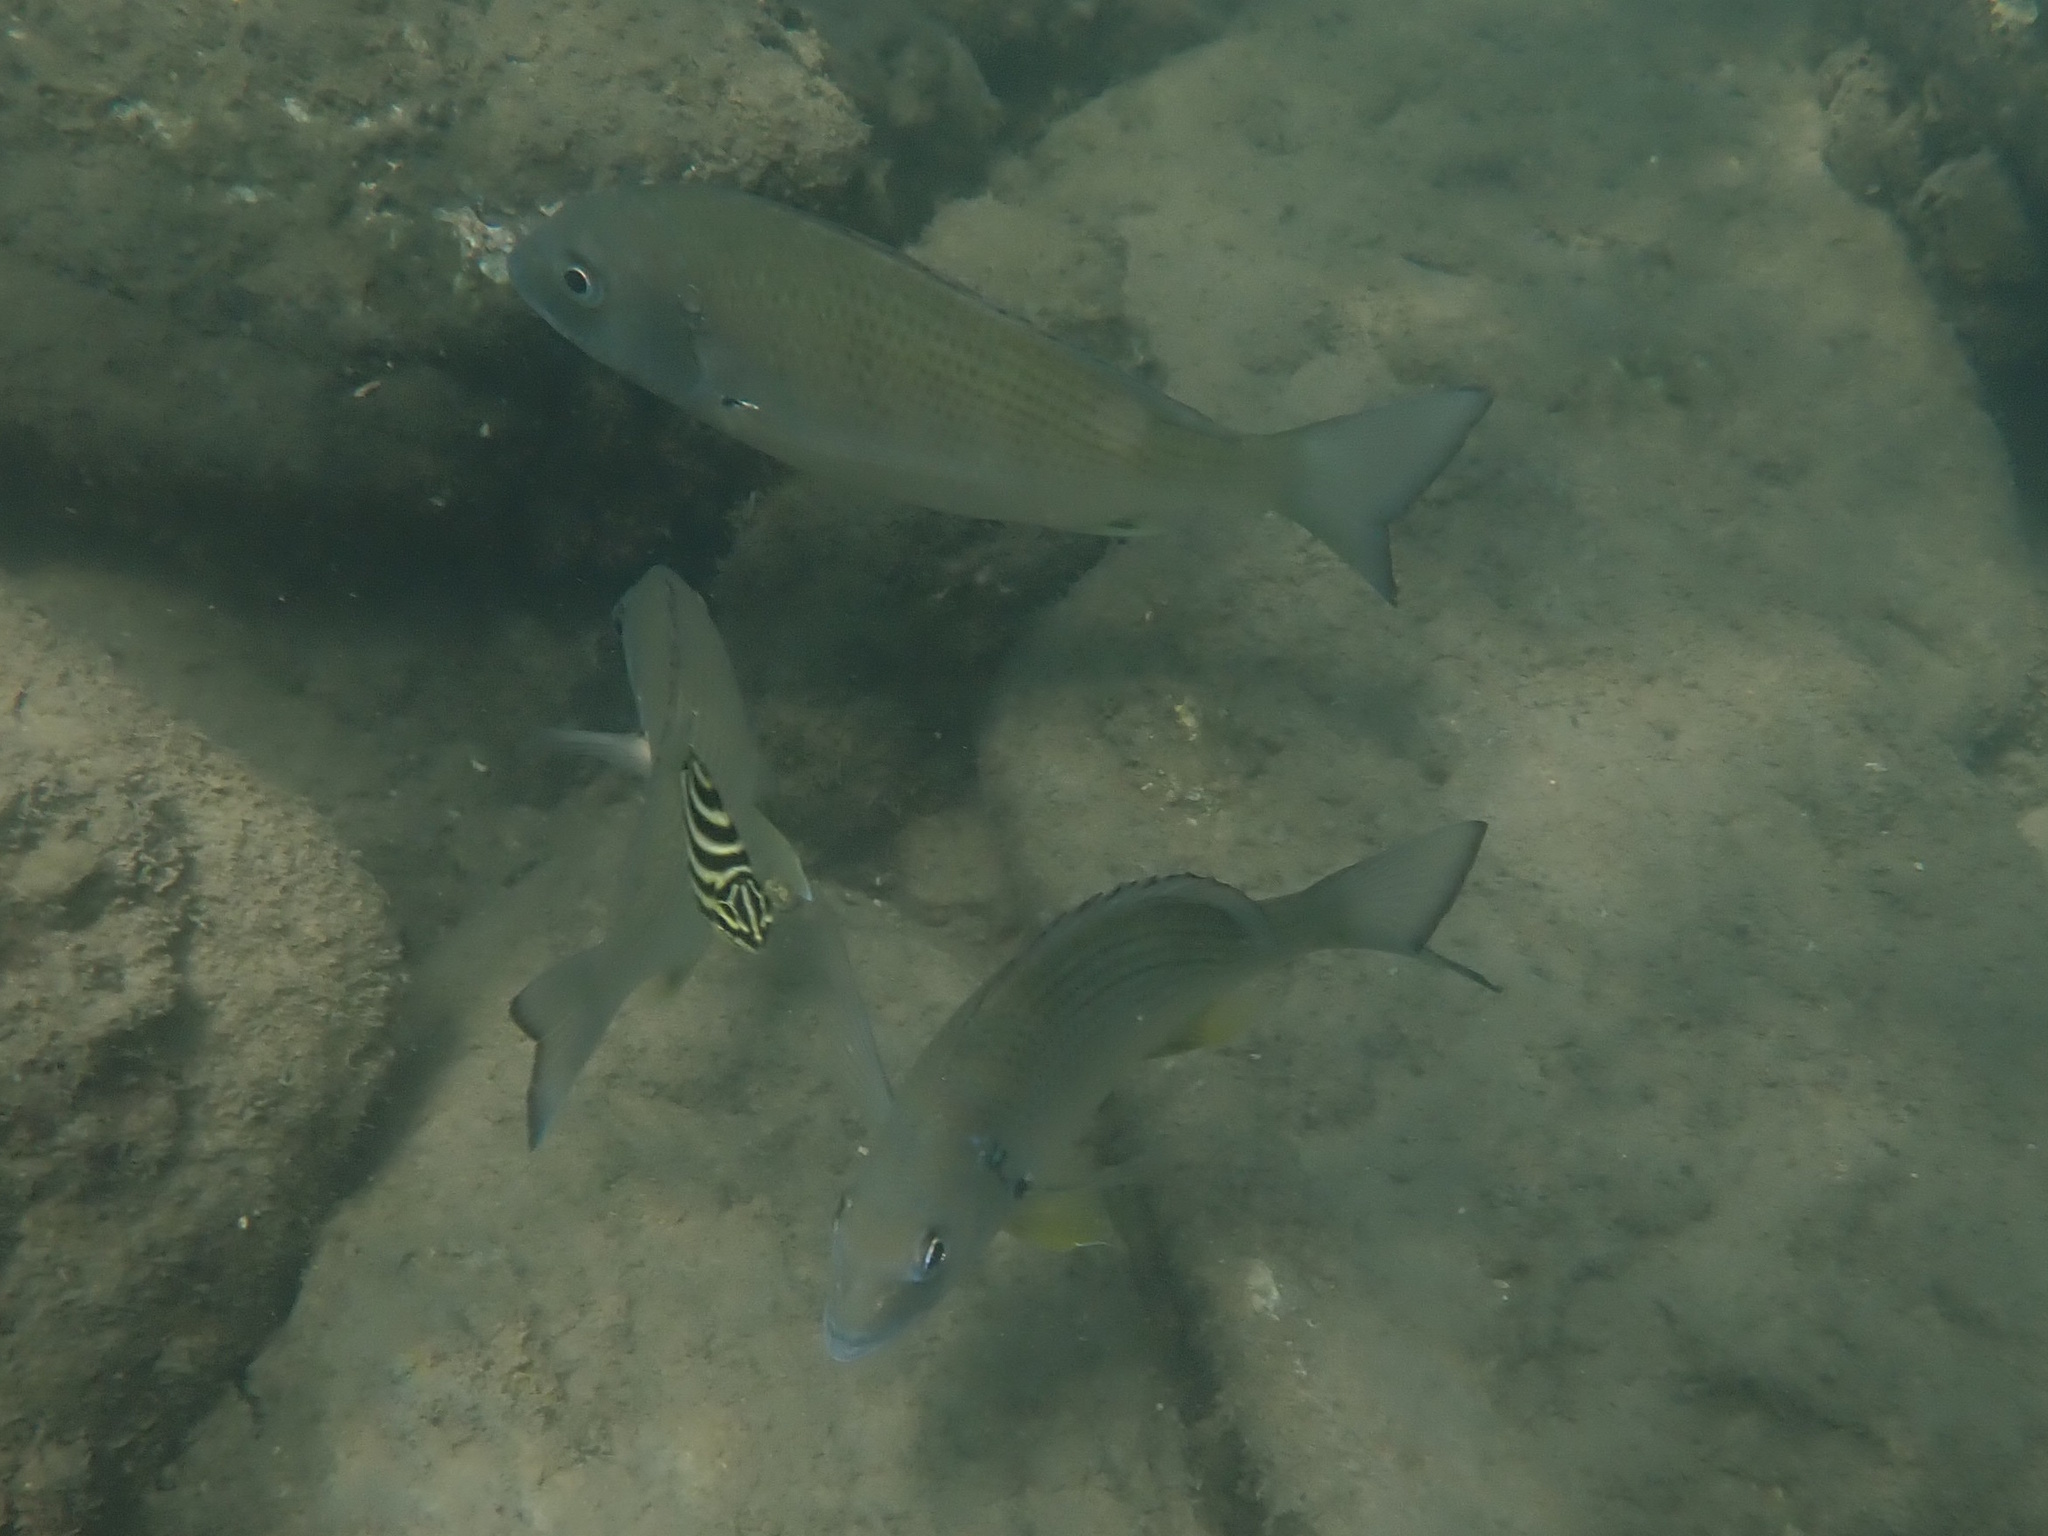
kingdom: Animalia
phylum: Chordata
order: Perciformes
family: Sparidae
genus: Acanthopagrus
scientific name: Acanthopagrus australis
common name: Surf bream
